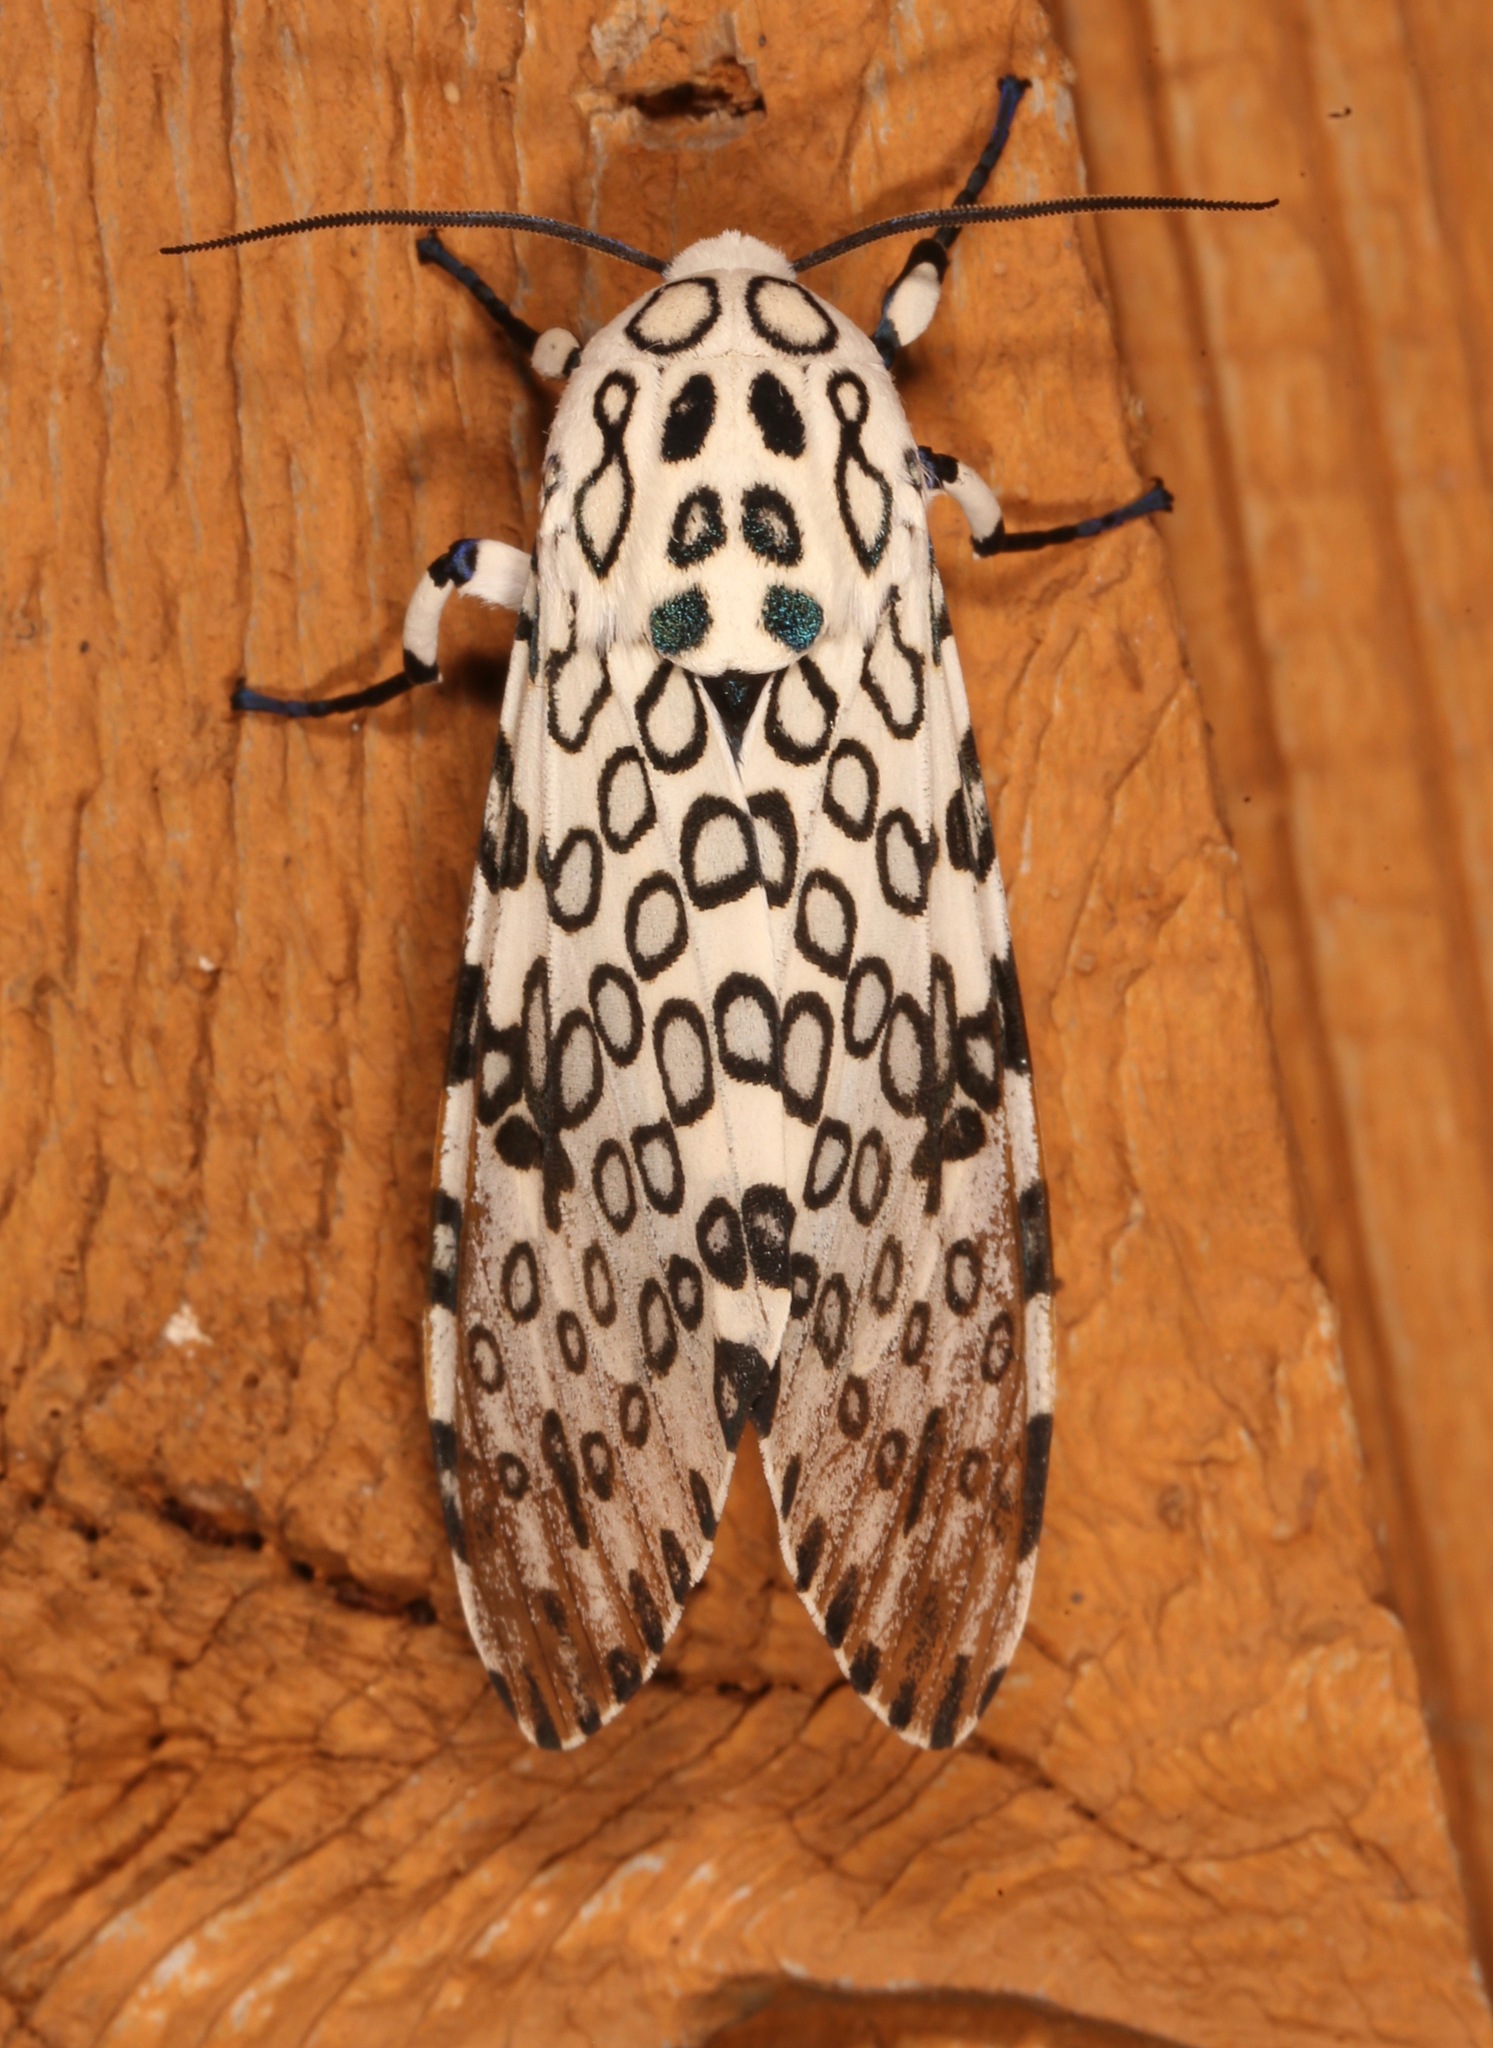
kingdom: Animalia
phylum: Arthropoda
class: Insecta
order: Lepidoptera
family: Erebidae
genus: Hypercompe
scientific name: Hypercompe scribonia
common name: Giant leopard moth
